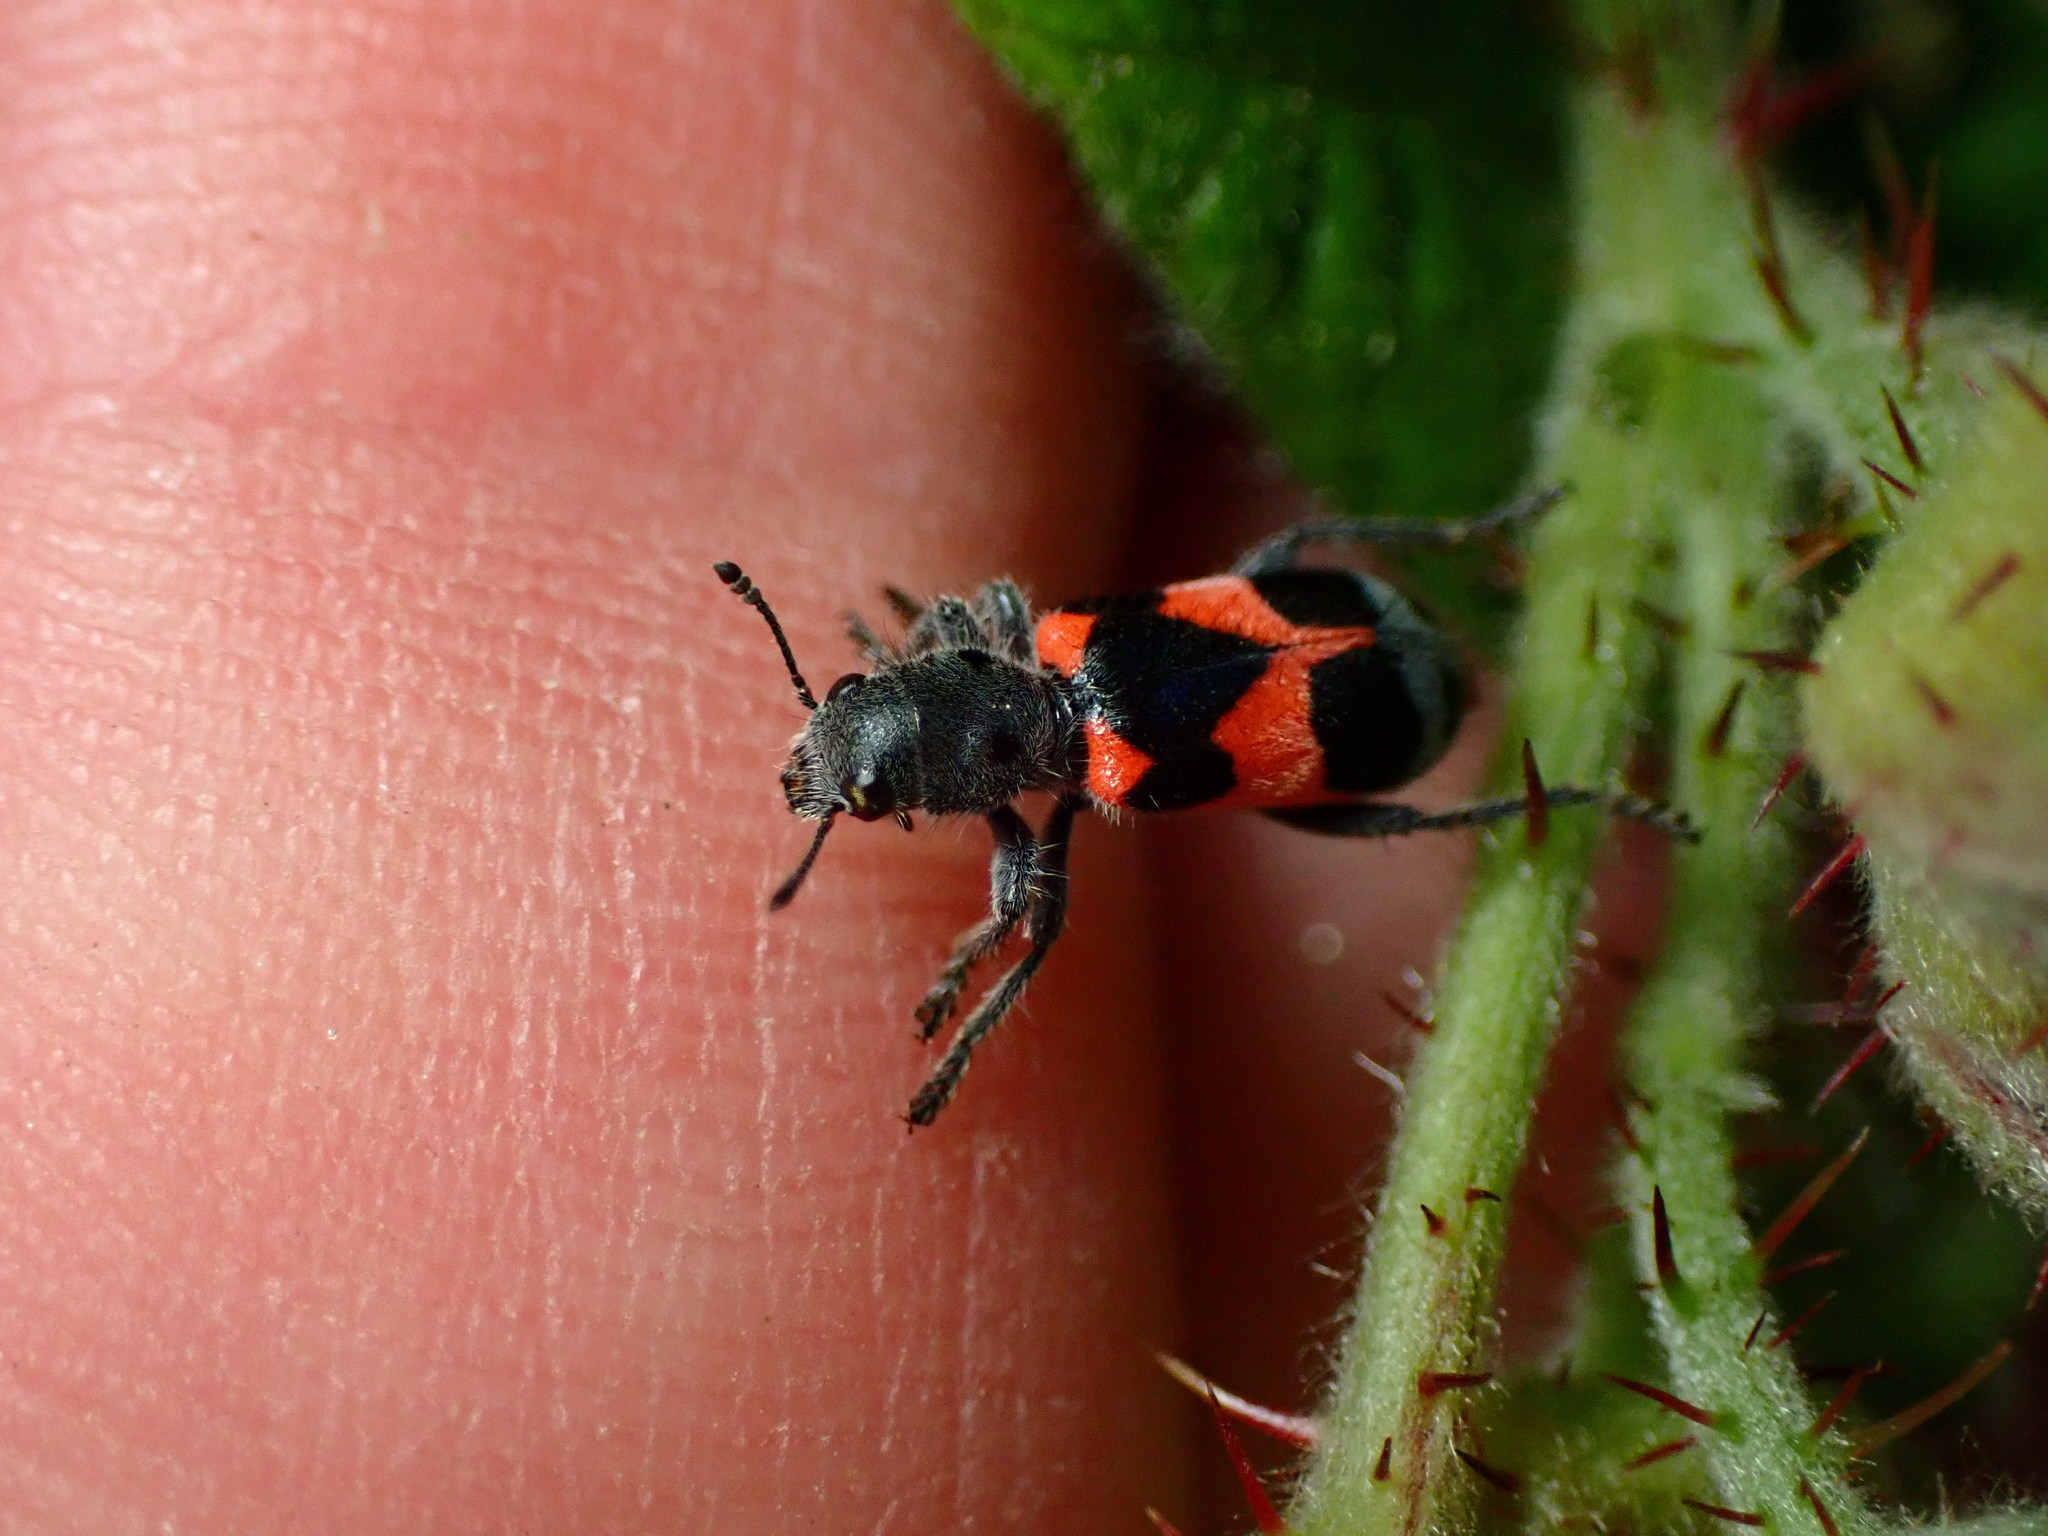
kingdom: Animalia
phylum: Arthropoda
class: Insecta
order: Coleoptera
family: Cleridae
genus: Enoclerus
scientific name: Enoclerus eximius
